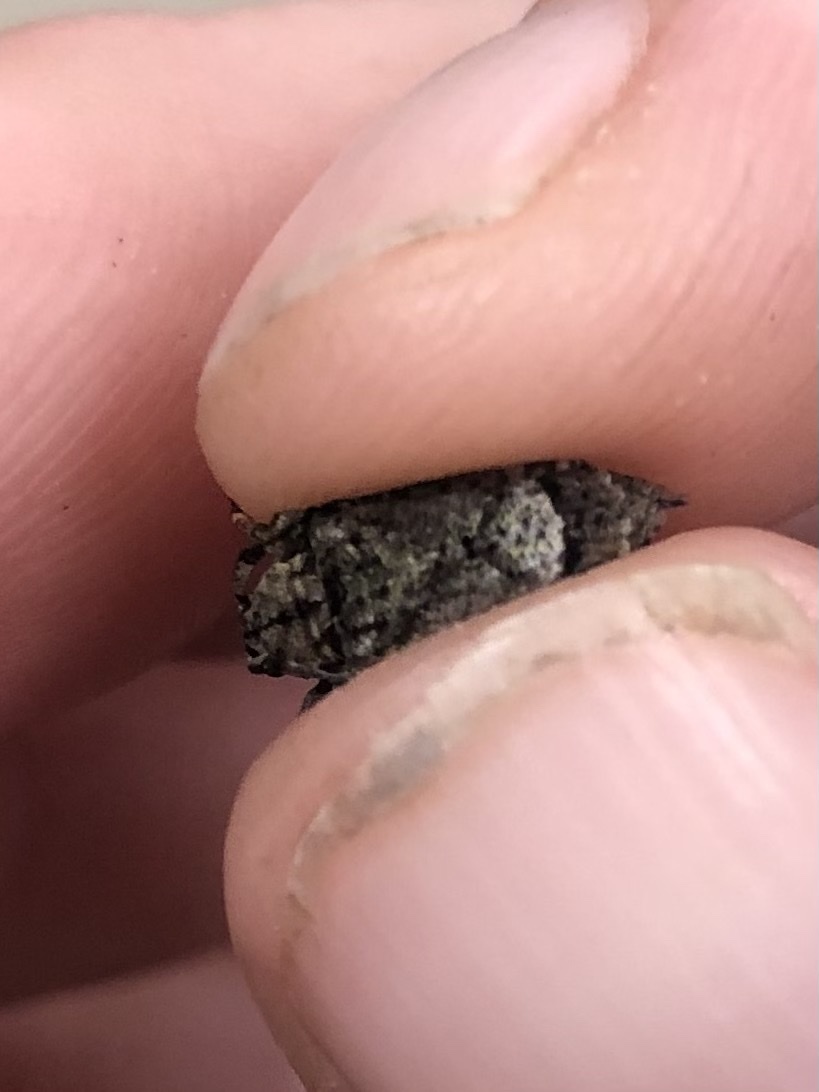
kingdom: Animalia
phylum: Arthropoda
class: Insecta
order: Coleoptera
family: Cerambycidae
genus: Leptostylus
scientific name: Leptostylus transversus
